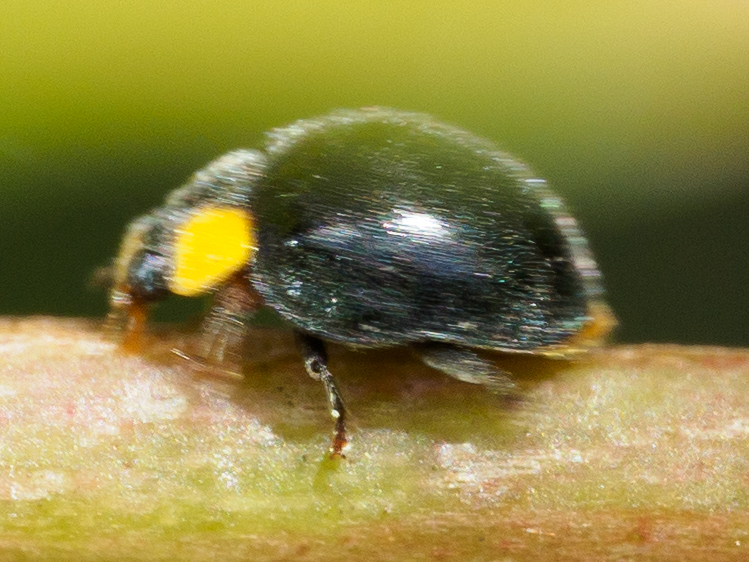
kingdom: Animalia
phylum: Arthropoda
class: Insecta
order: Coleoptera
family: Coccinellidae
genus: Scymnodes
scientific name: Scymnodes lividigaster
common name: Yellowshouldered lady beetle
